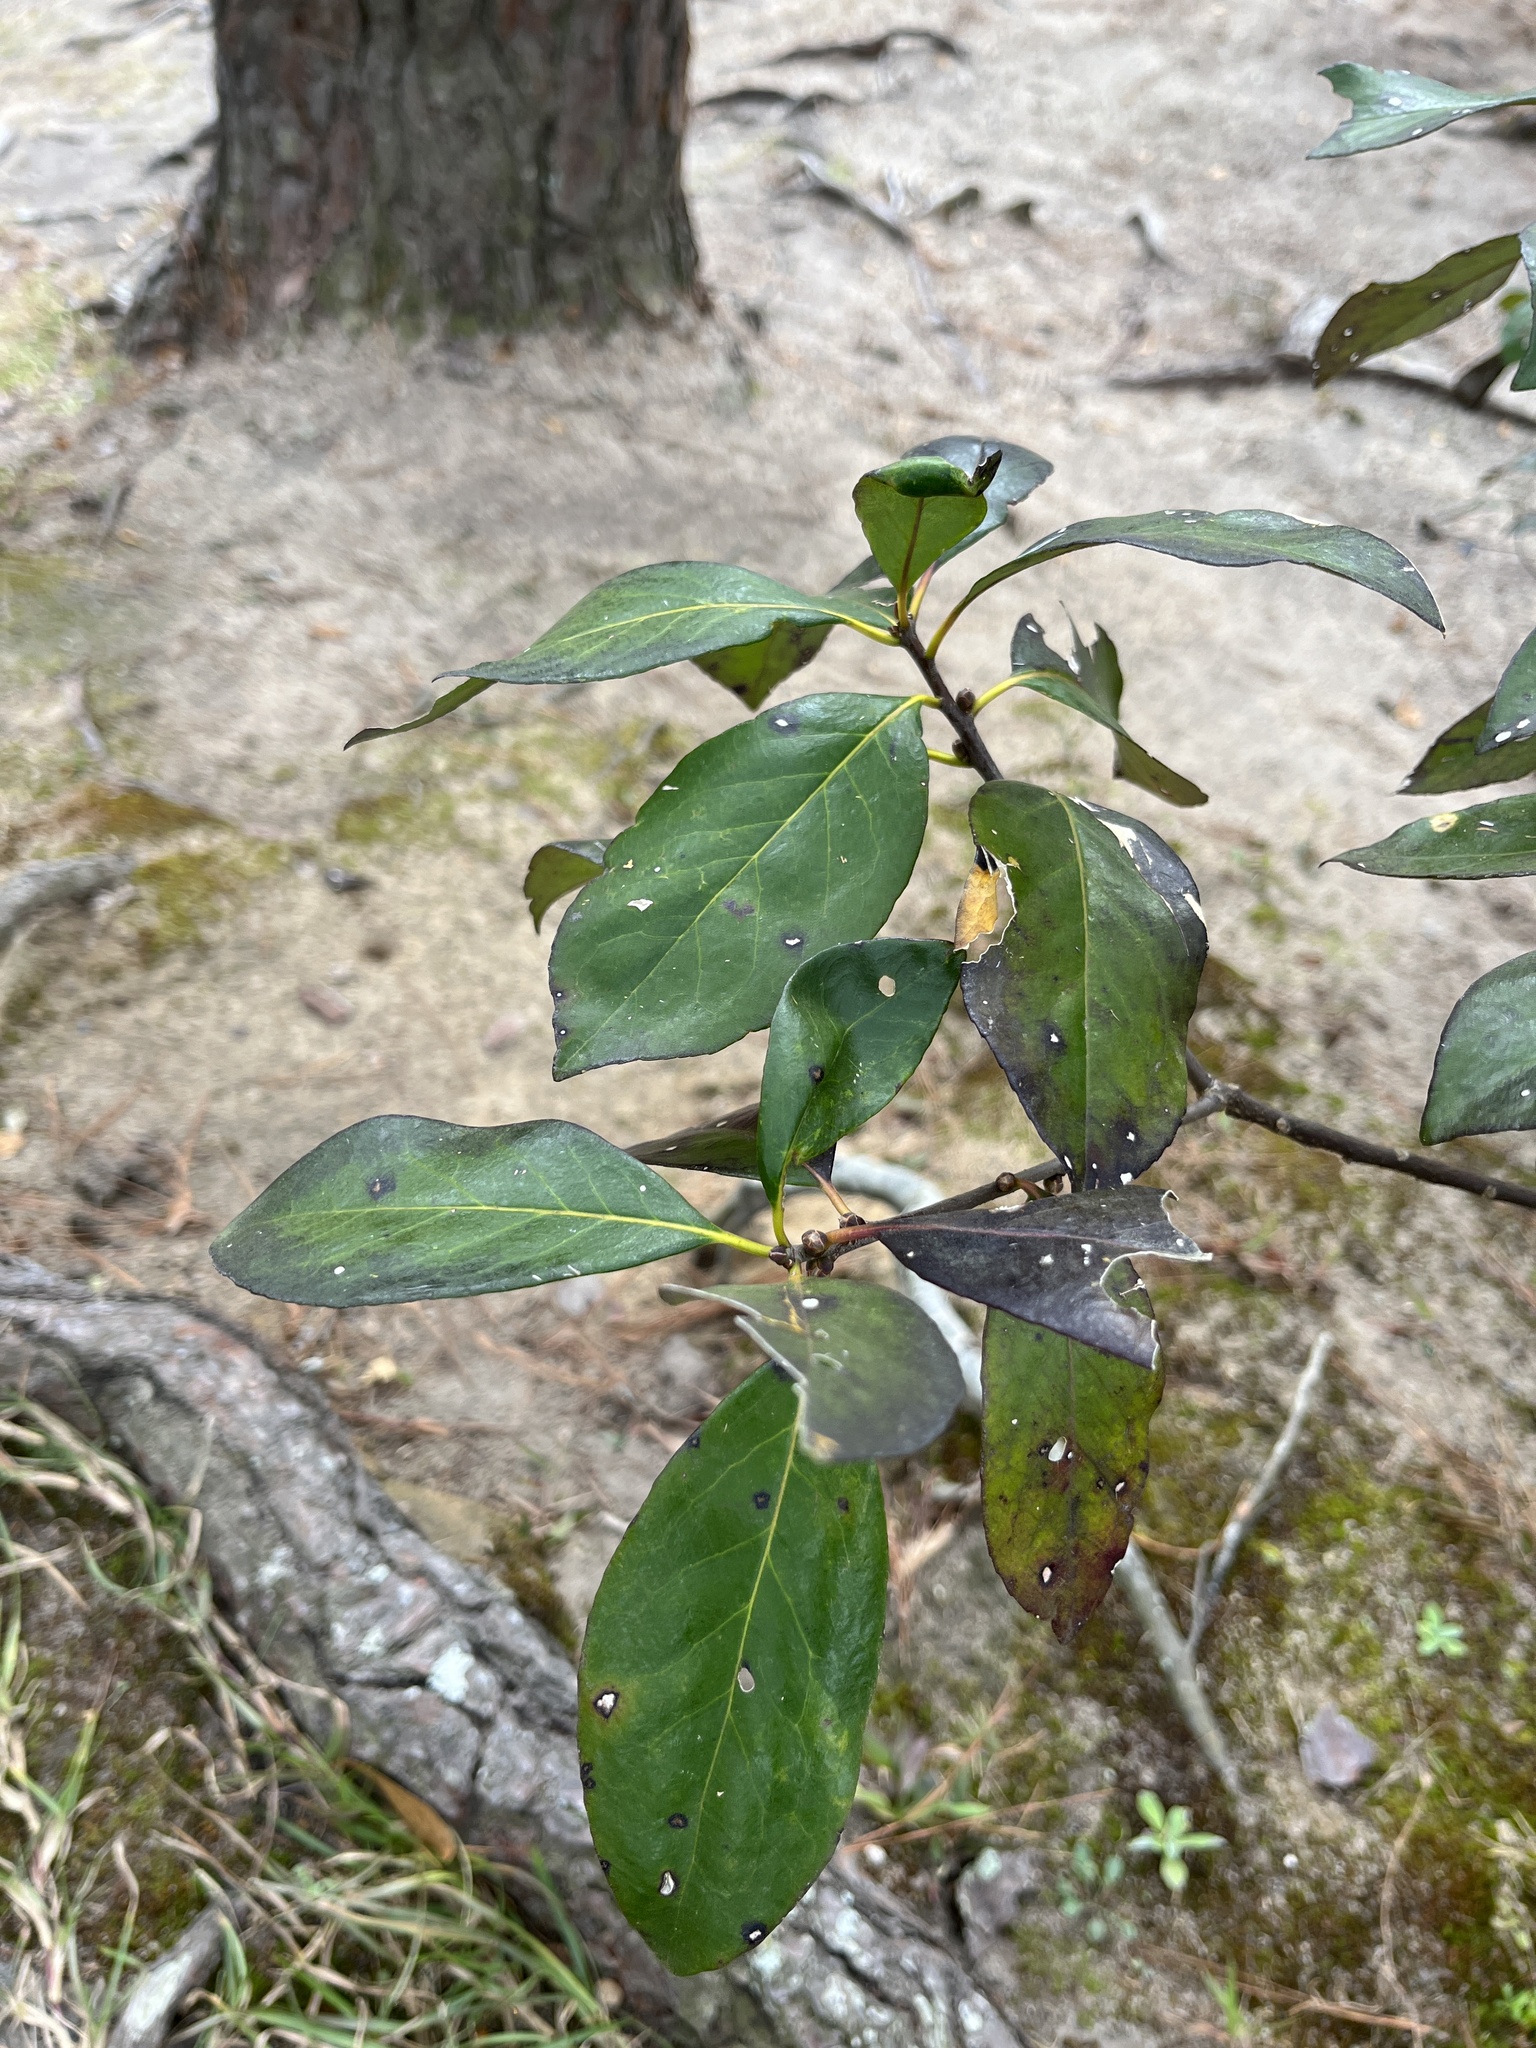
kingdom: Plantae
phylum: Tracheophyta
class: Magnoliopsida
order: Ericales
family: Symplocaceae
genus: Symplocos
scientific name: Symplocos tinctoria
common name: Horse-sugar
